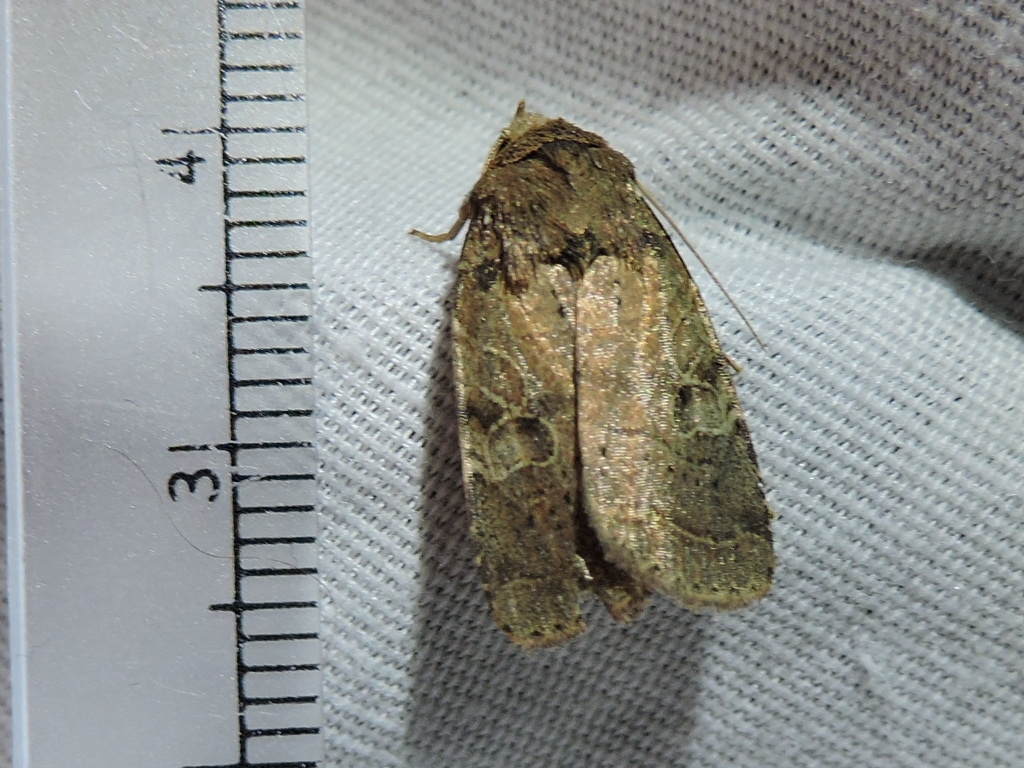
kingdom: Animalia
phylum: Arthropoda
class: Insecta
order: Lepidoptera
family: Noctuidae
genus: Orthodes
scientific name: Orthodes furtiva
